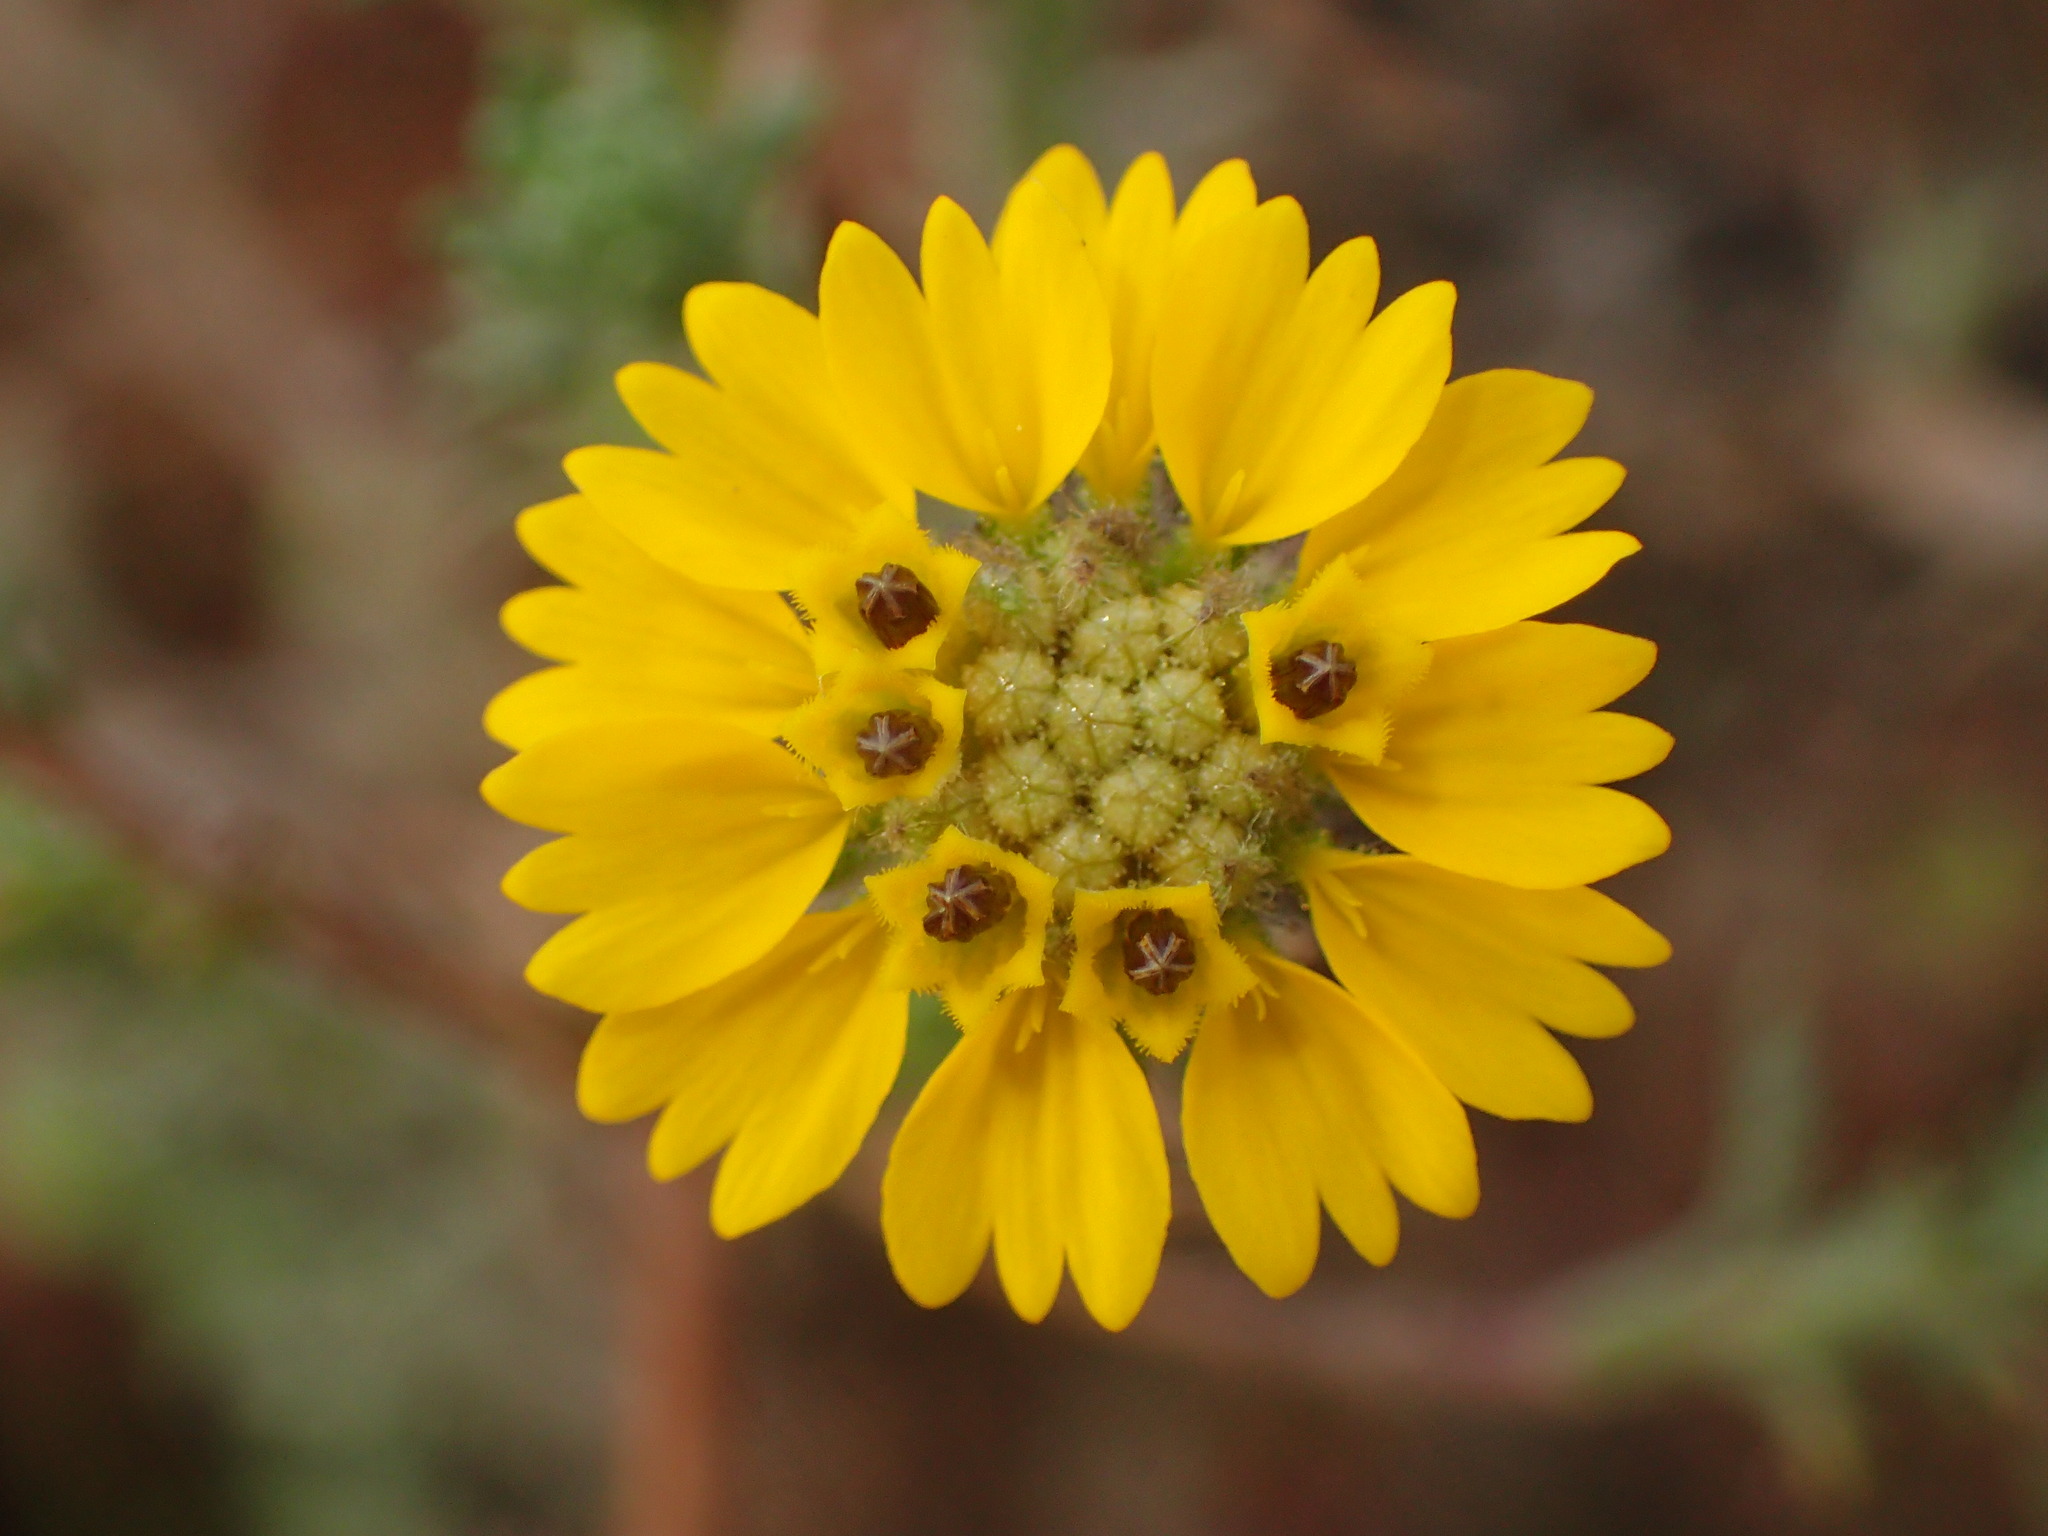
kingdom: Plantae
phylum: Tracheophyta
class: Magnoliopsida
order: Asterales
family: Asteraceae
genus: Deinandra
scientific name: Deinandra increscens
